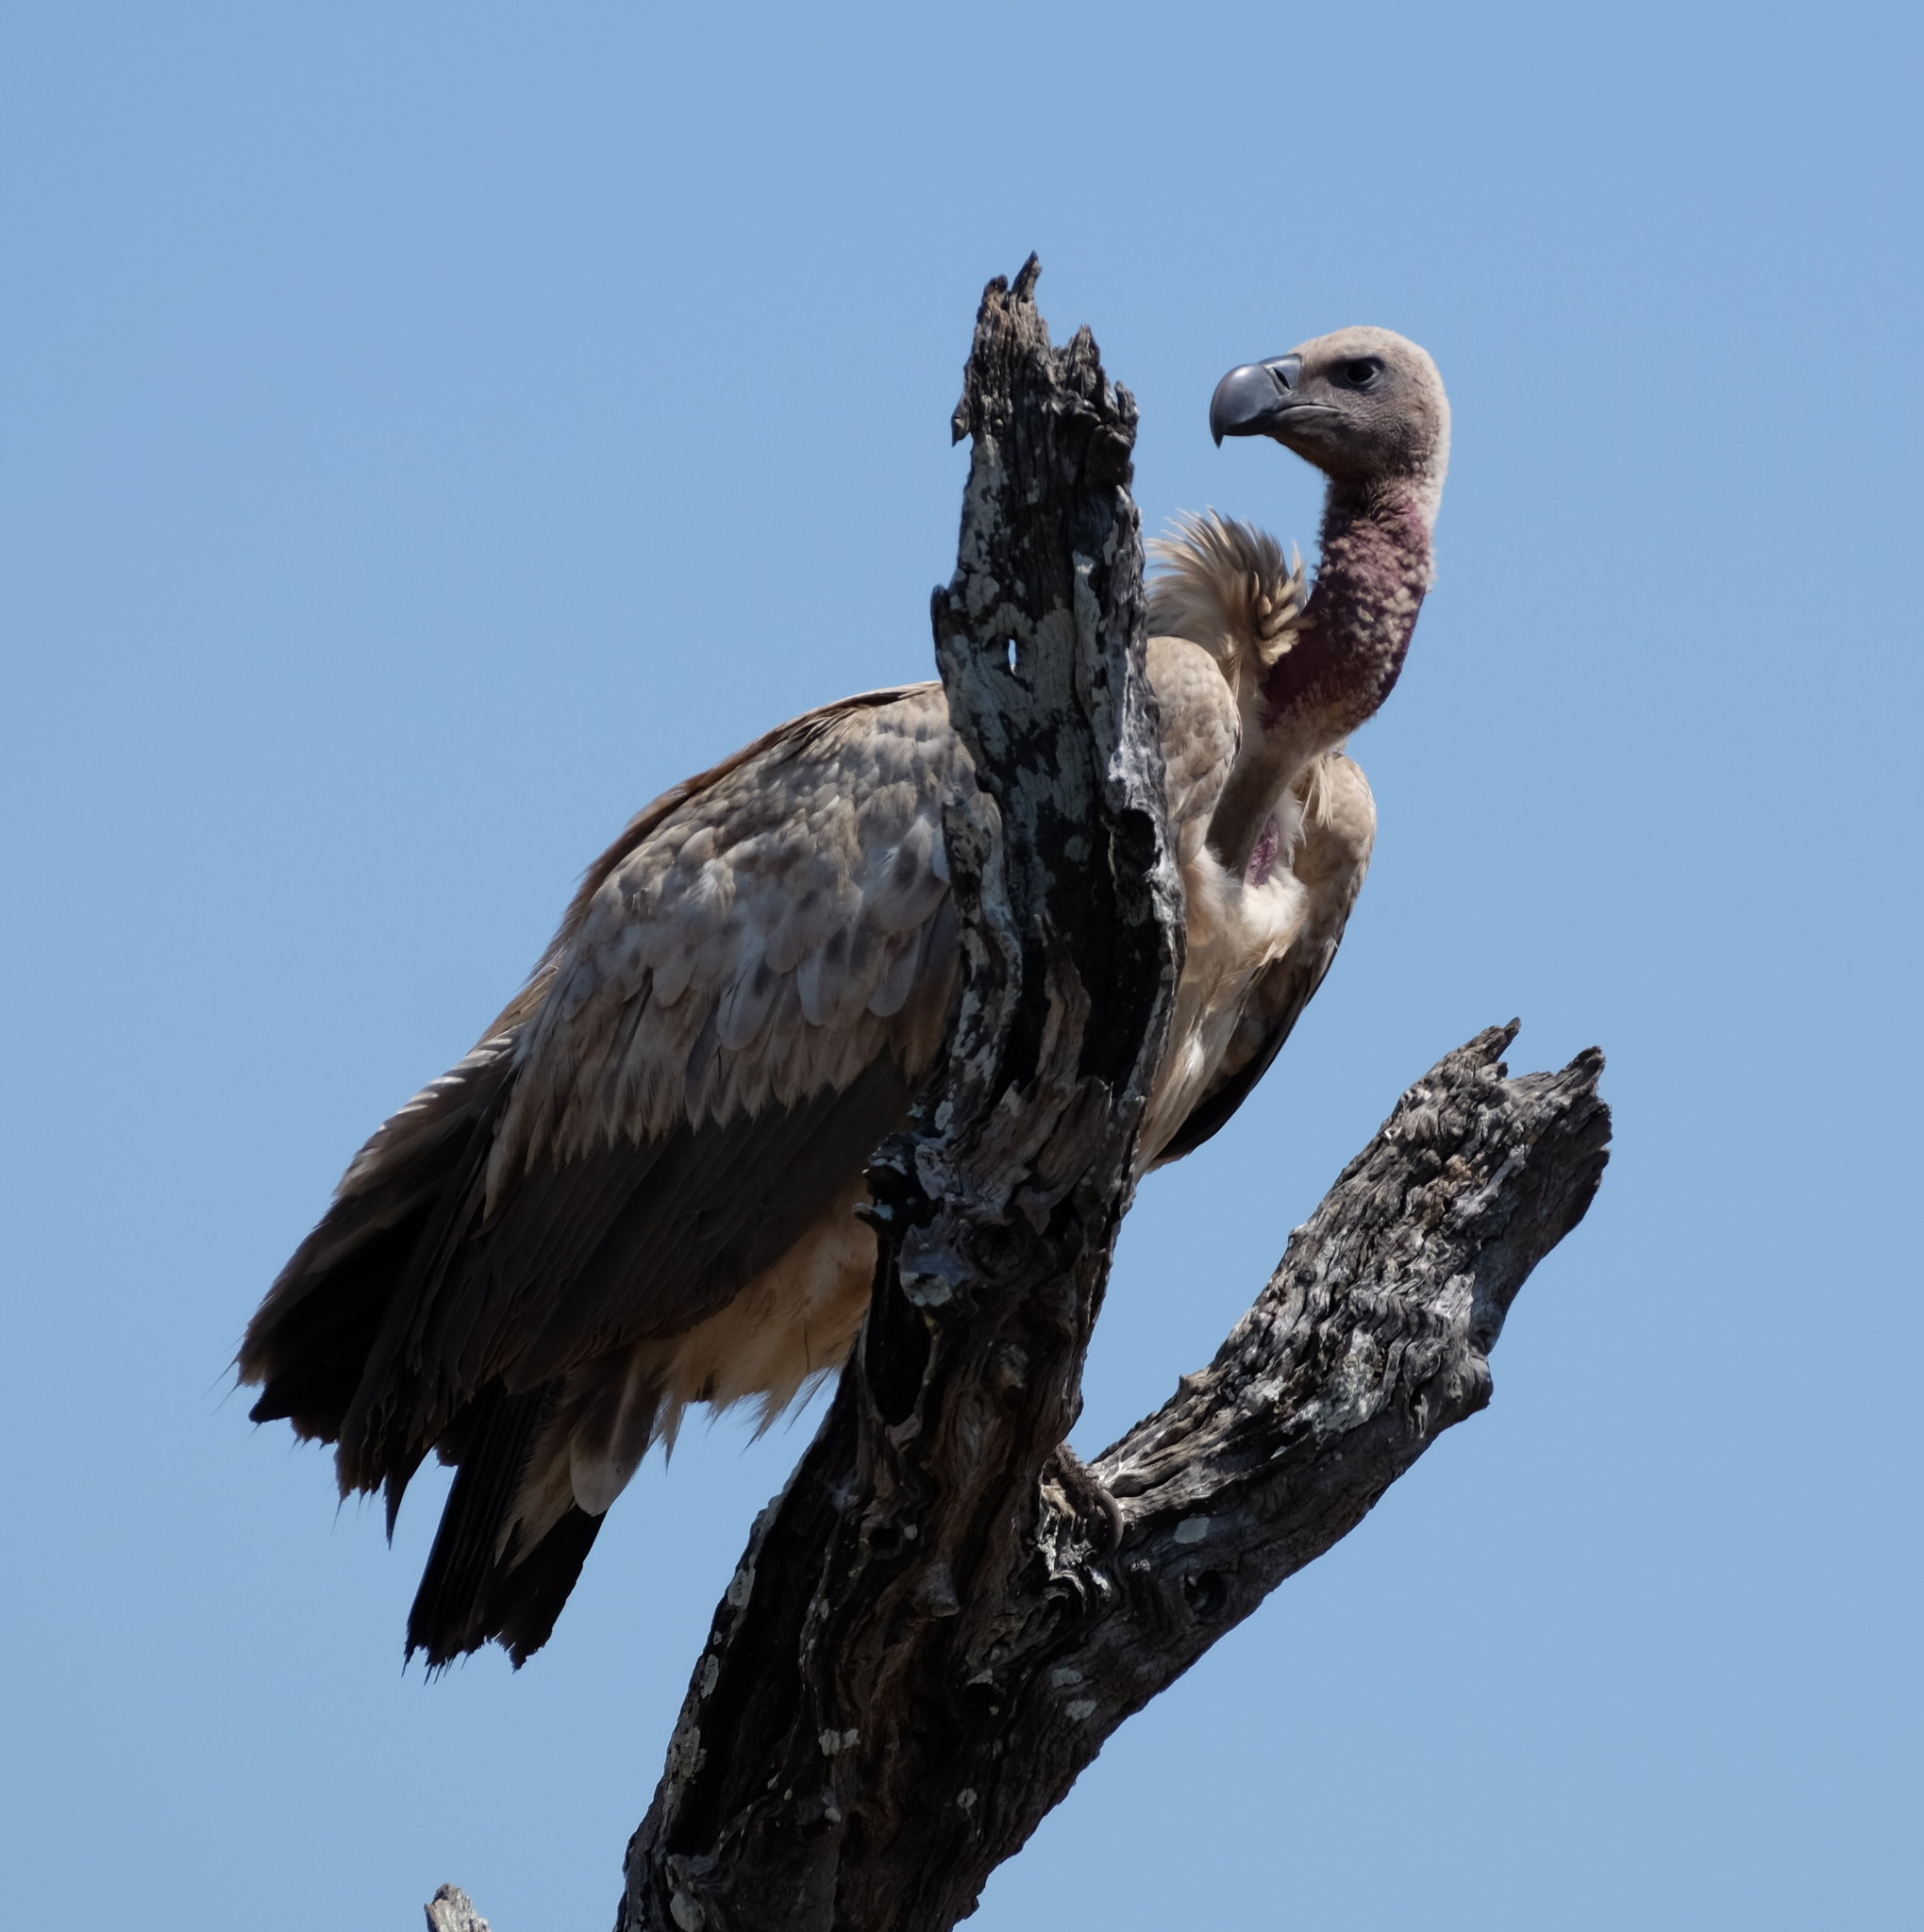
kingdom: Animalia
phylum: Chordata
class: Aves
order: Accipitriformes
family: Accipitridae
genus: Gyps
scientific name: Gyps africanus
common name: White-backed vulture
